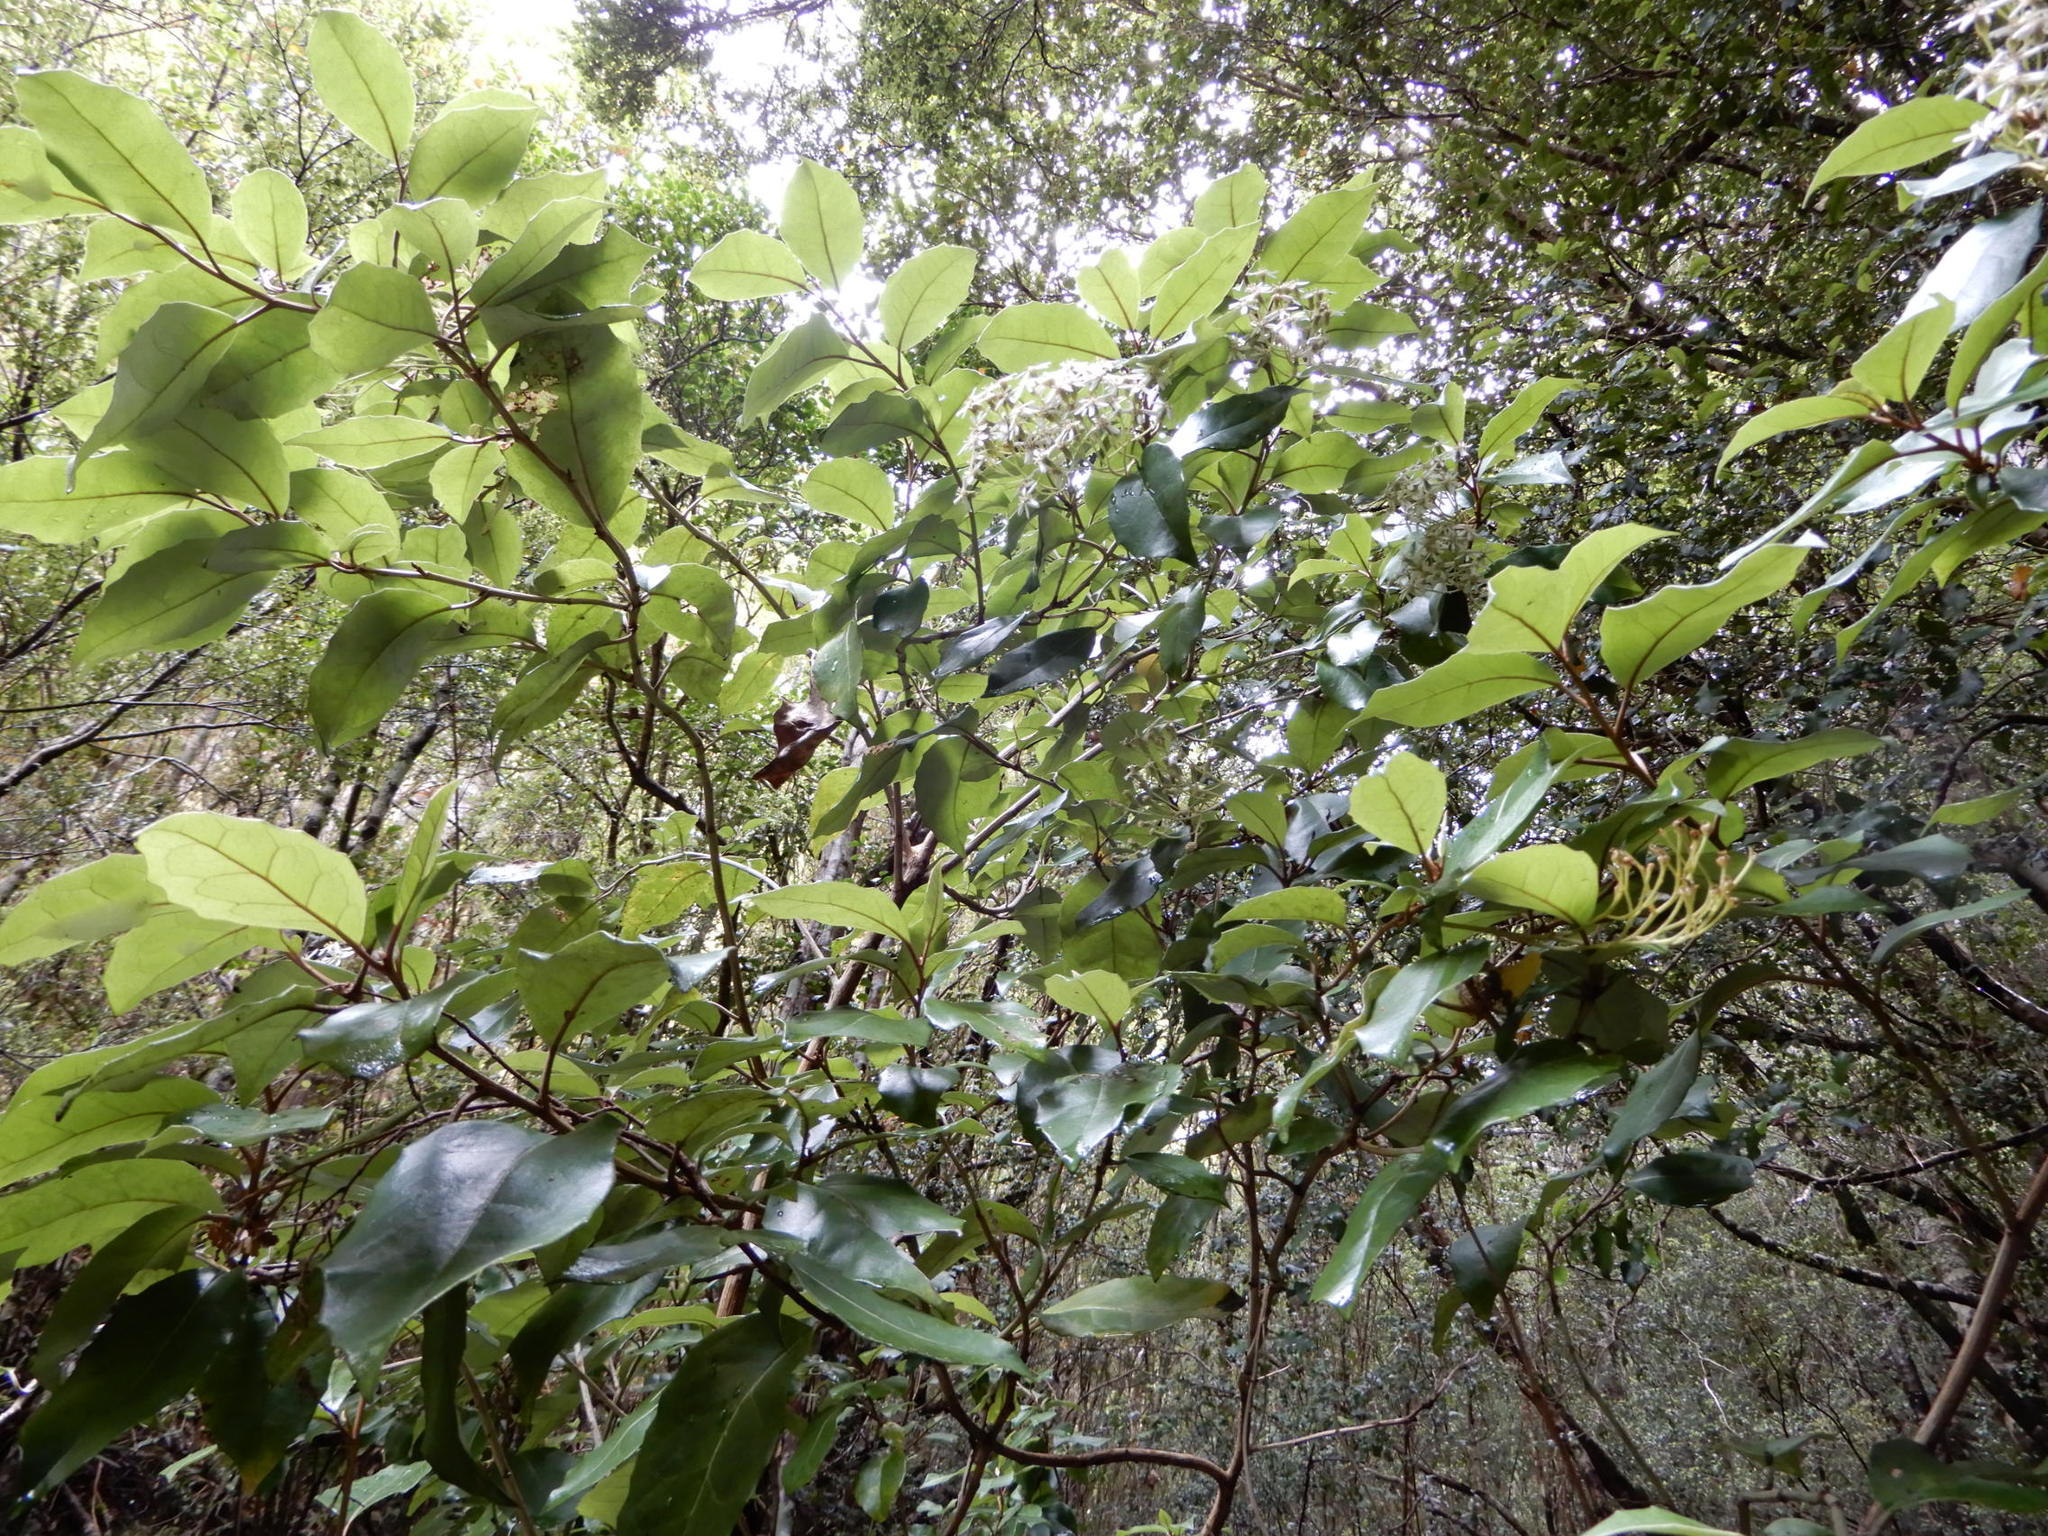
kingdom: Plantae
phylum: Tracheophyta
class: Magnoliopsida
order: Asterales
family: Asteraceae
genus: Olearia
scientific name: Olearia arborescens
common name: Glossy tree daisy
